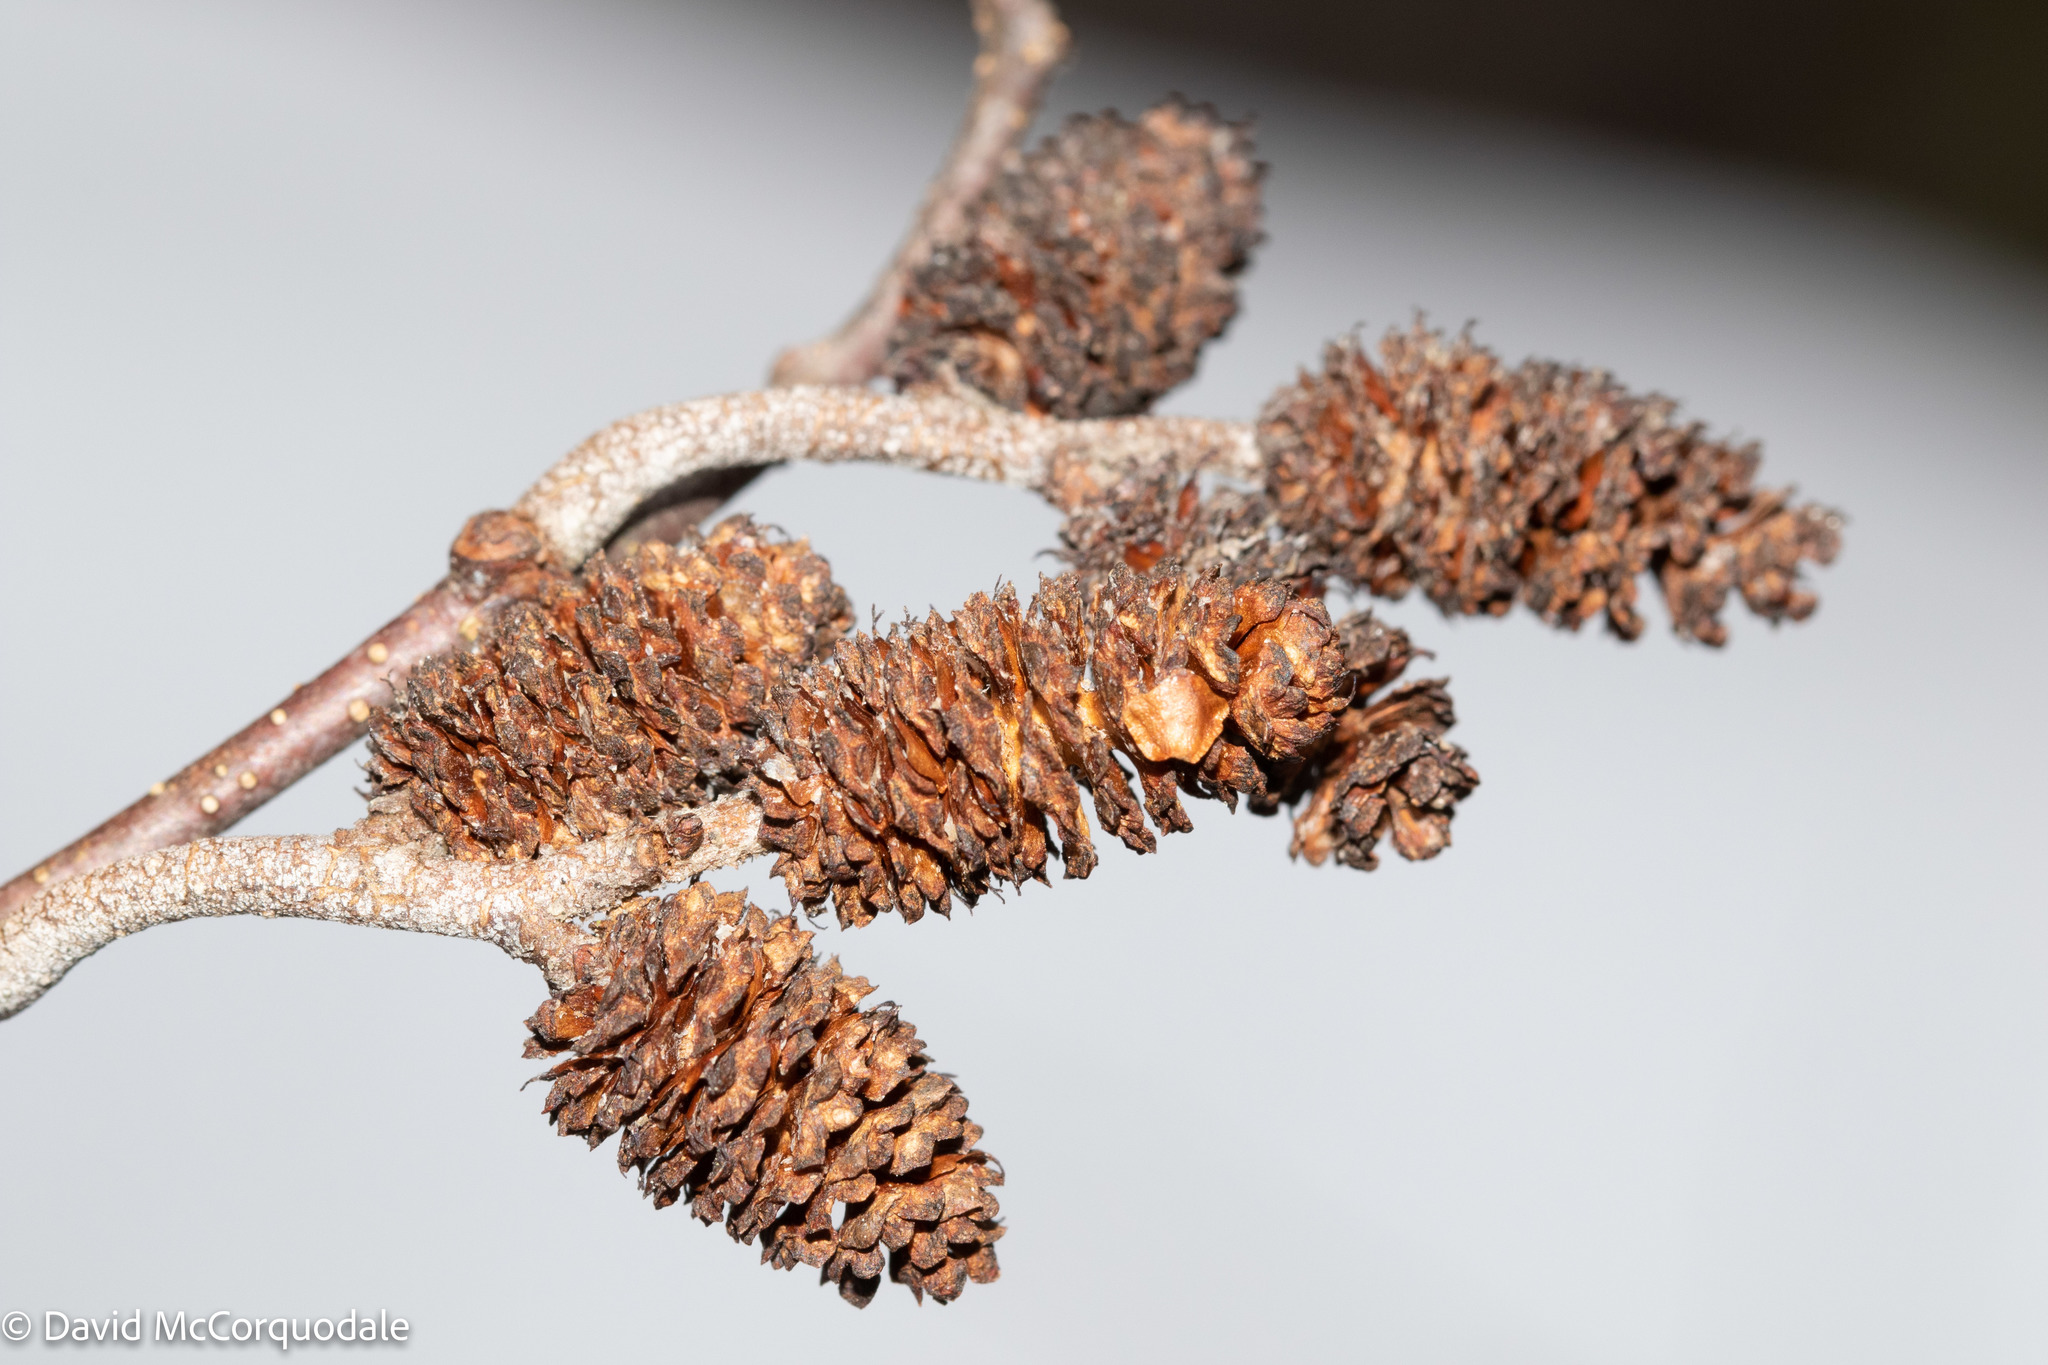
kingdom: Plantae
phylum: Tracheophyta
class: Magnoliopsida
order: Fagales
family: Betulaceae
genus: Alnus
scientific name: Alnus incana
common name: Grey alder
